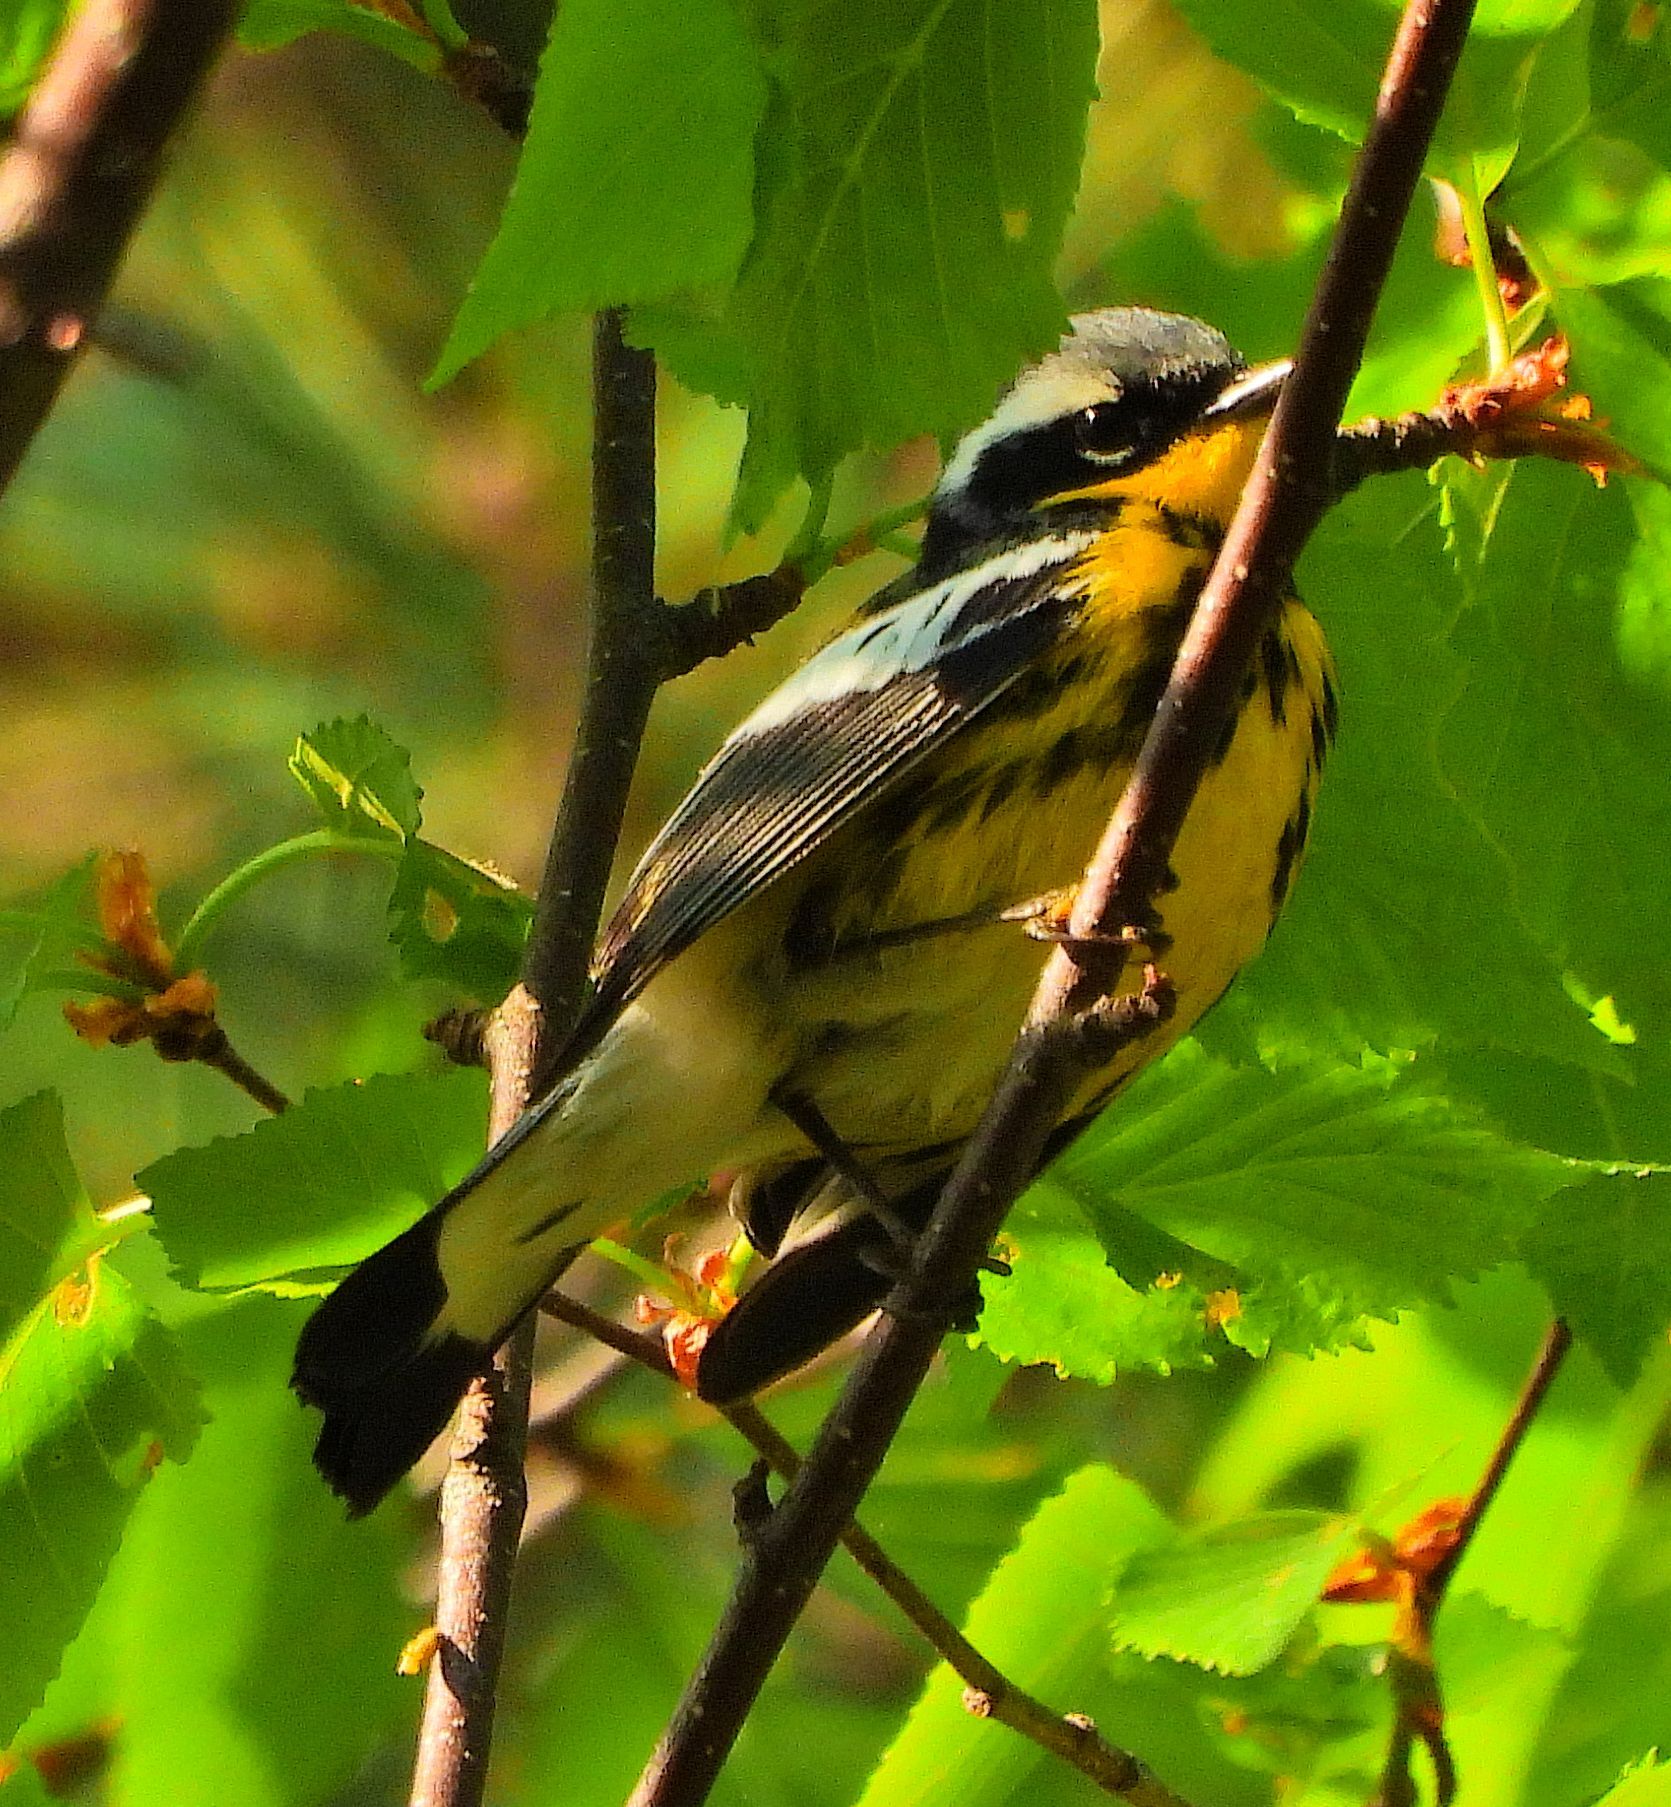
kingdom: Animalia
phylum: Chordata
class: Aves
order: Passeriformes
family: Parulidae
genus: Setophaga
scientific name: Setophaga magnolia
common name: Magnolia warbler
